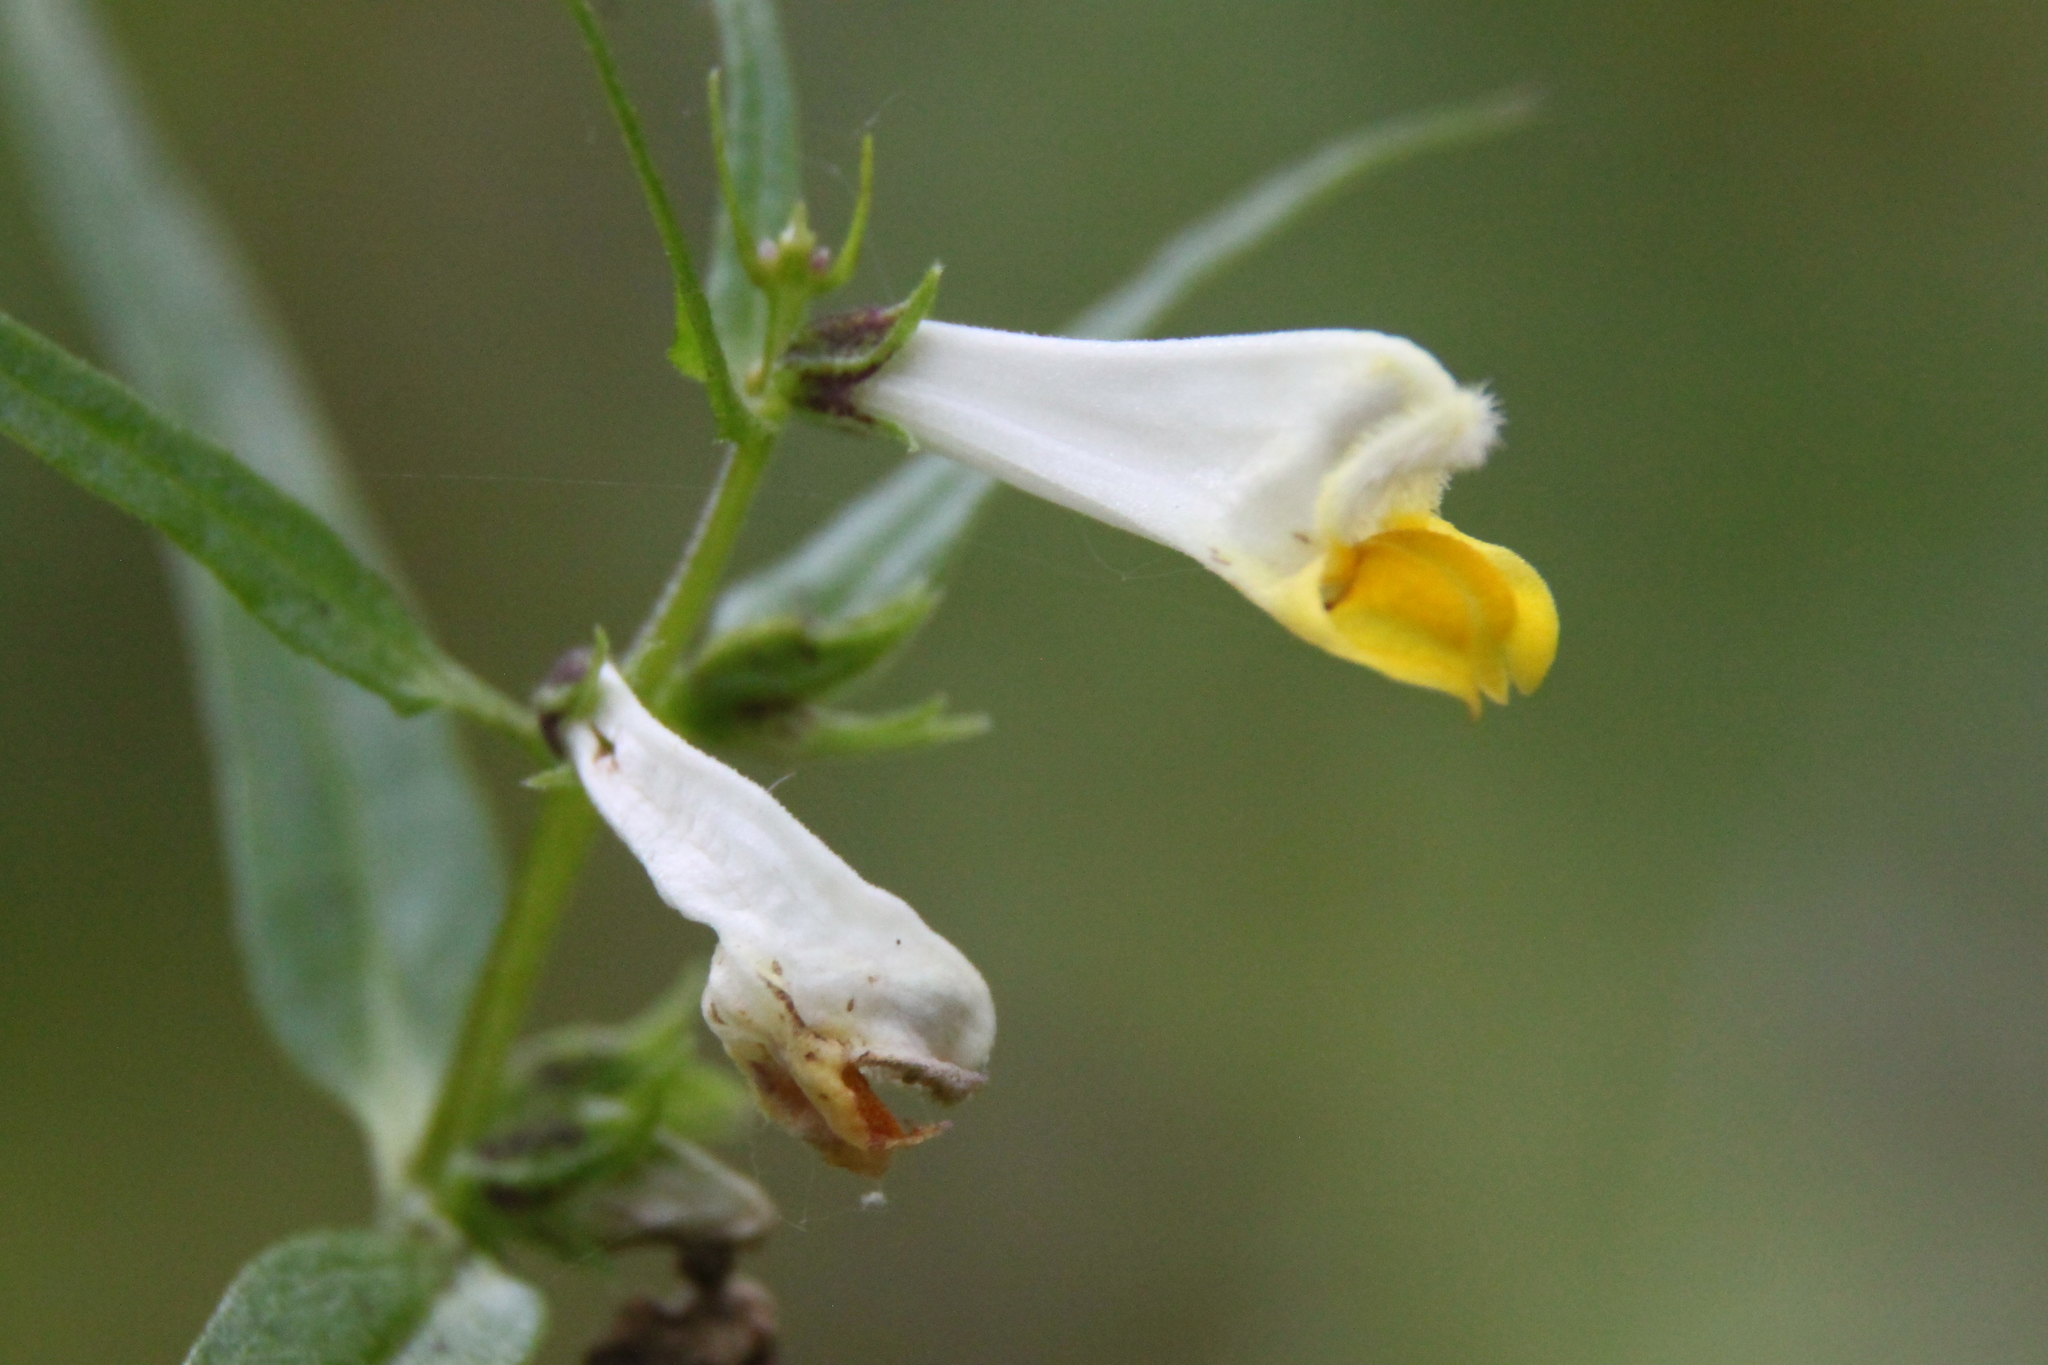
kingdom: Plantae
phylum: Tracheophyta
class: Magnoliopsida
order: Lamiales
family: Orobanchaceae
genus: Melampyrum
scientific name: Melampyrum pratense
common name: Common cow-wheat
